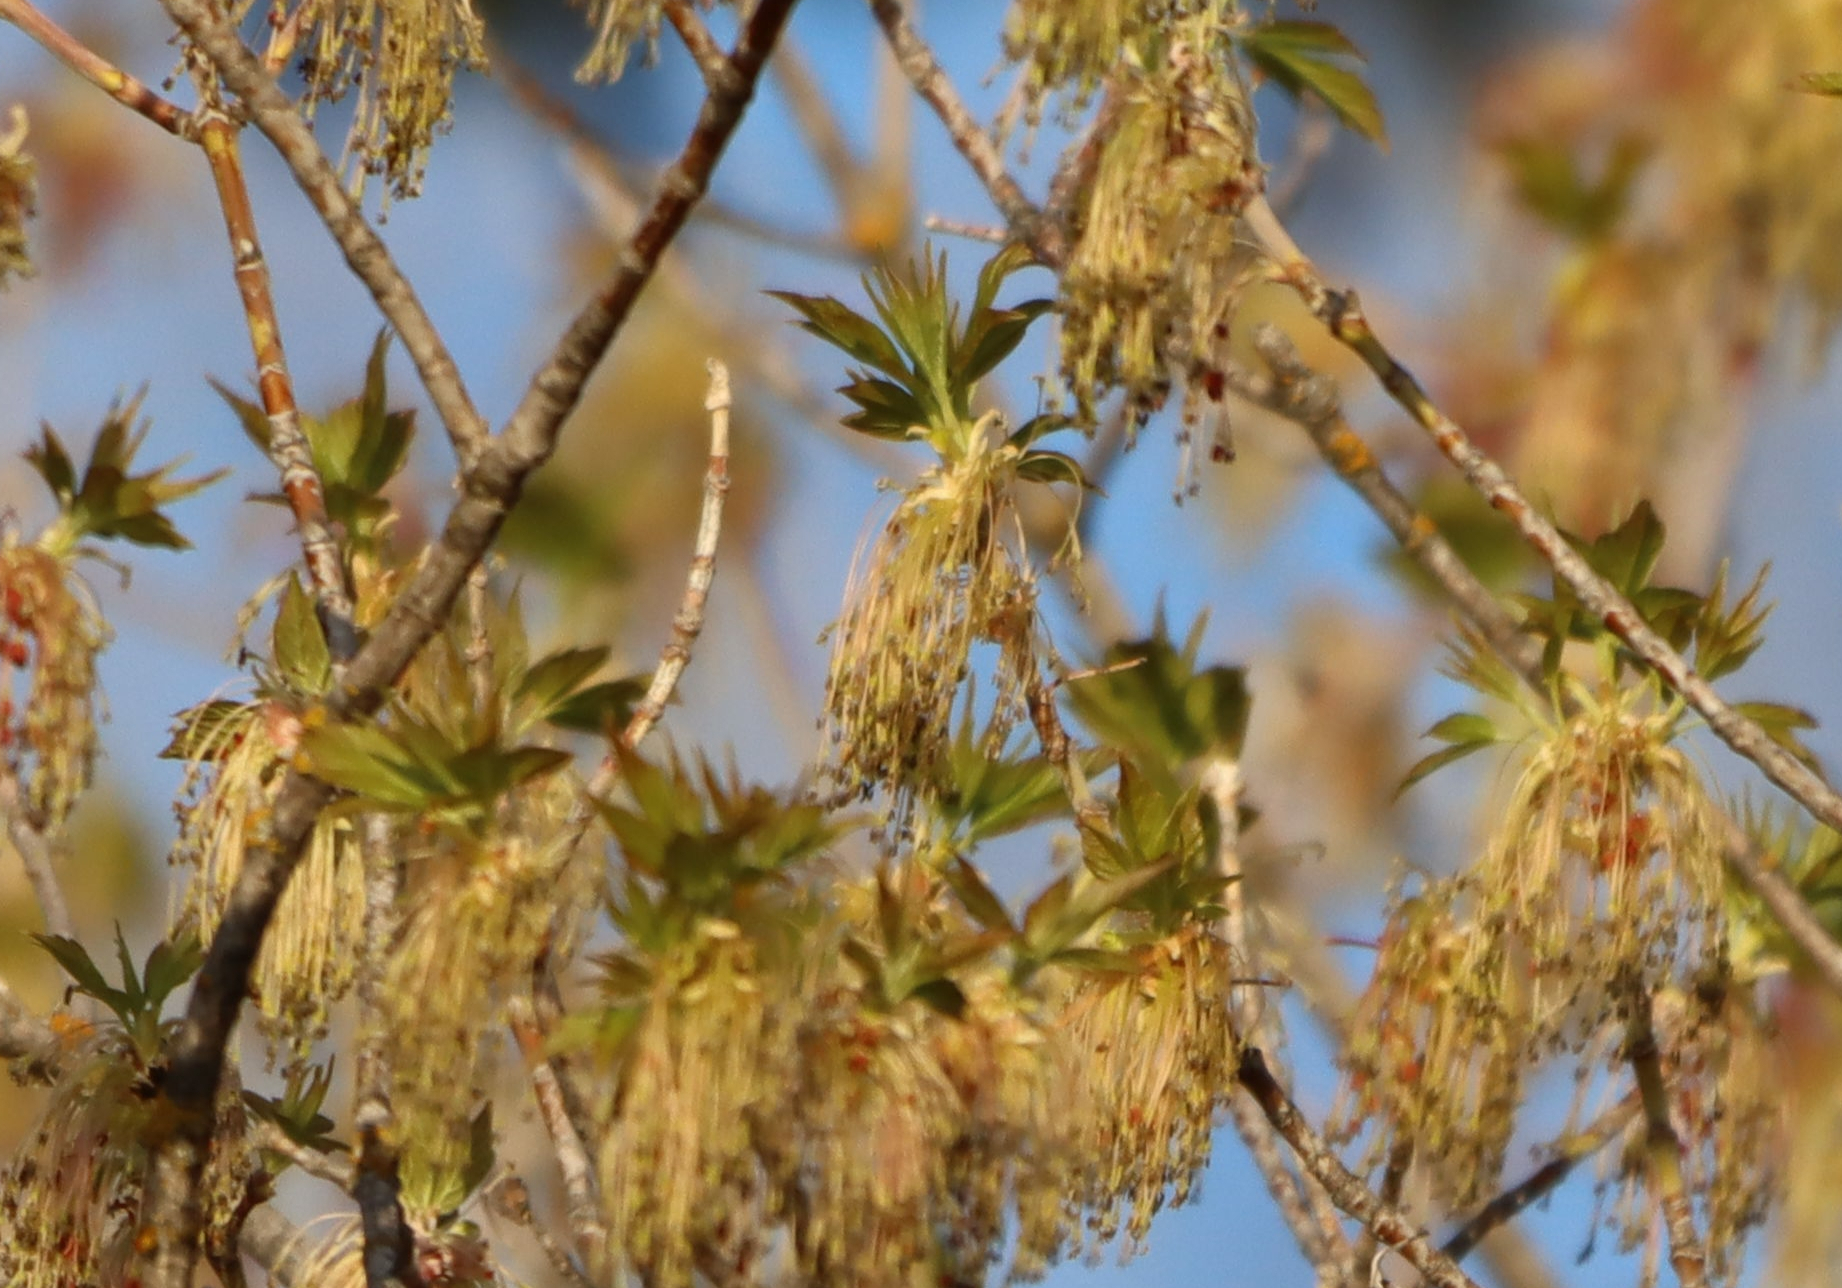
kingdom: Plantae
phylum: Tracheophyta
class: Magnoliopsida
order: Sapindales
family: Sapindaceae
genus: Acer
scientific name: Acer negundo
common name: Ashleaf maple
